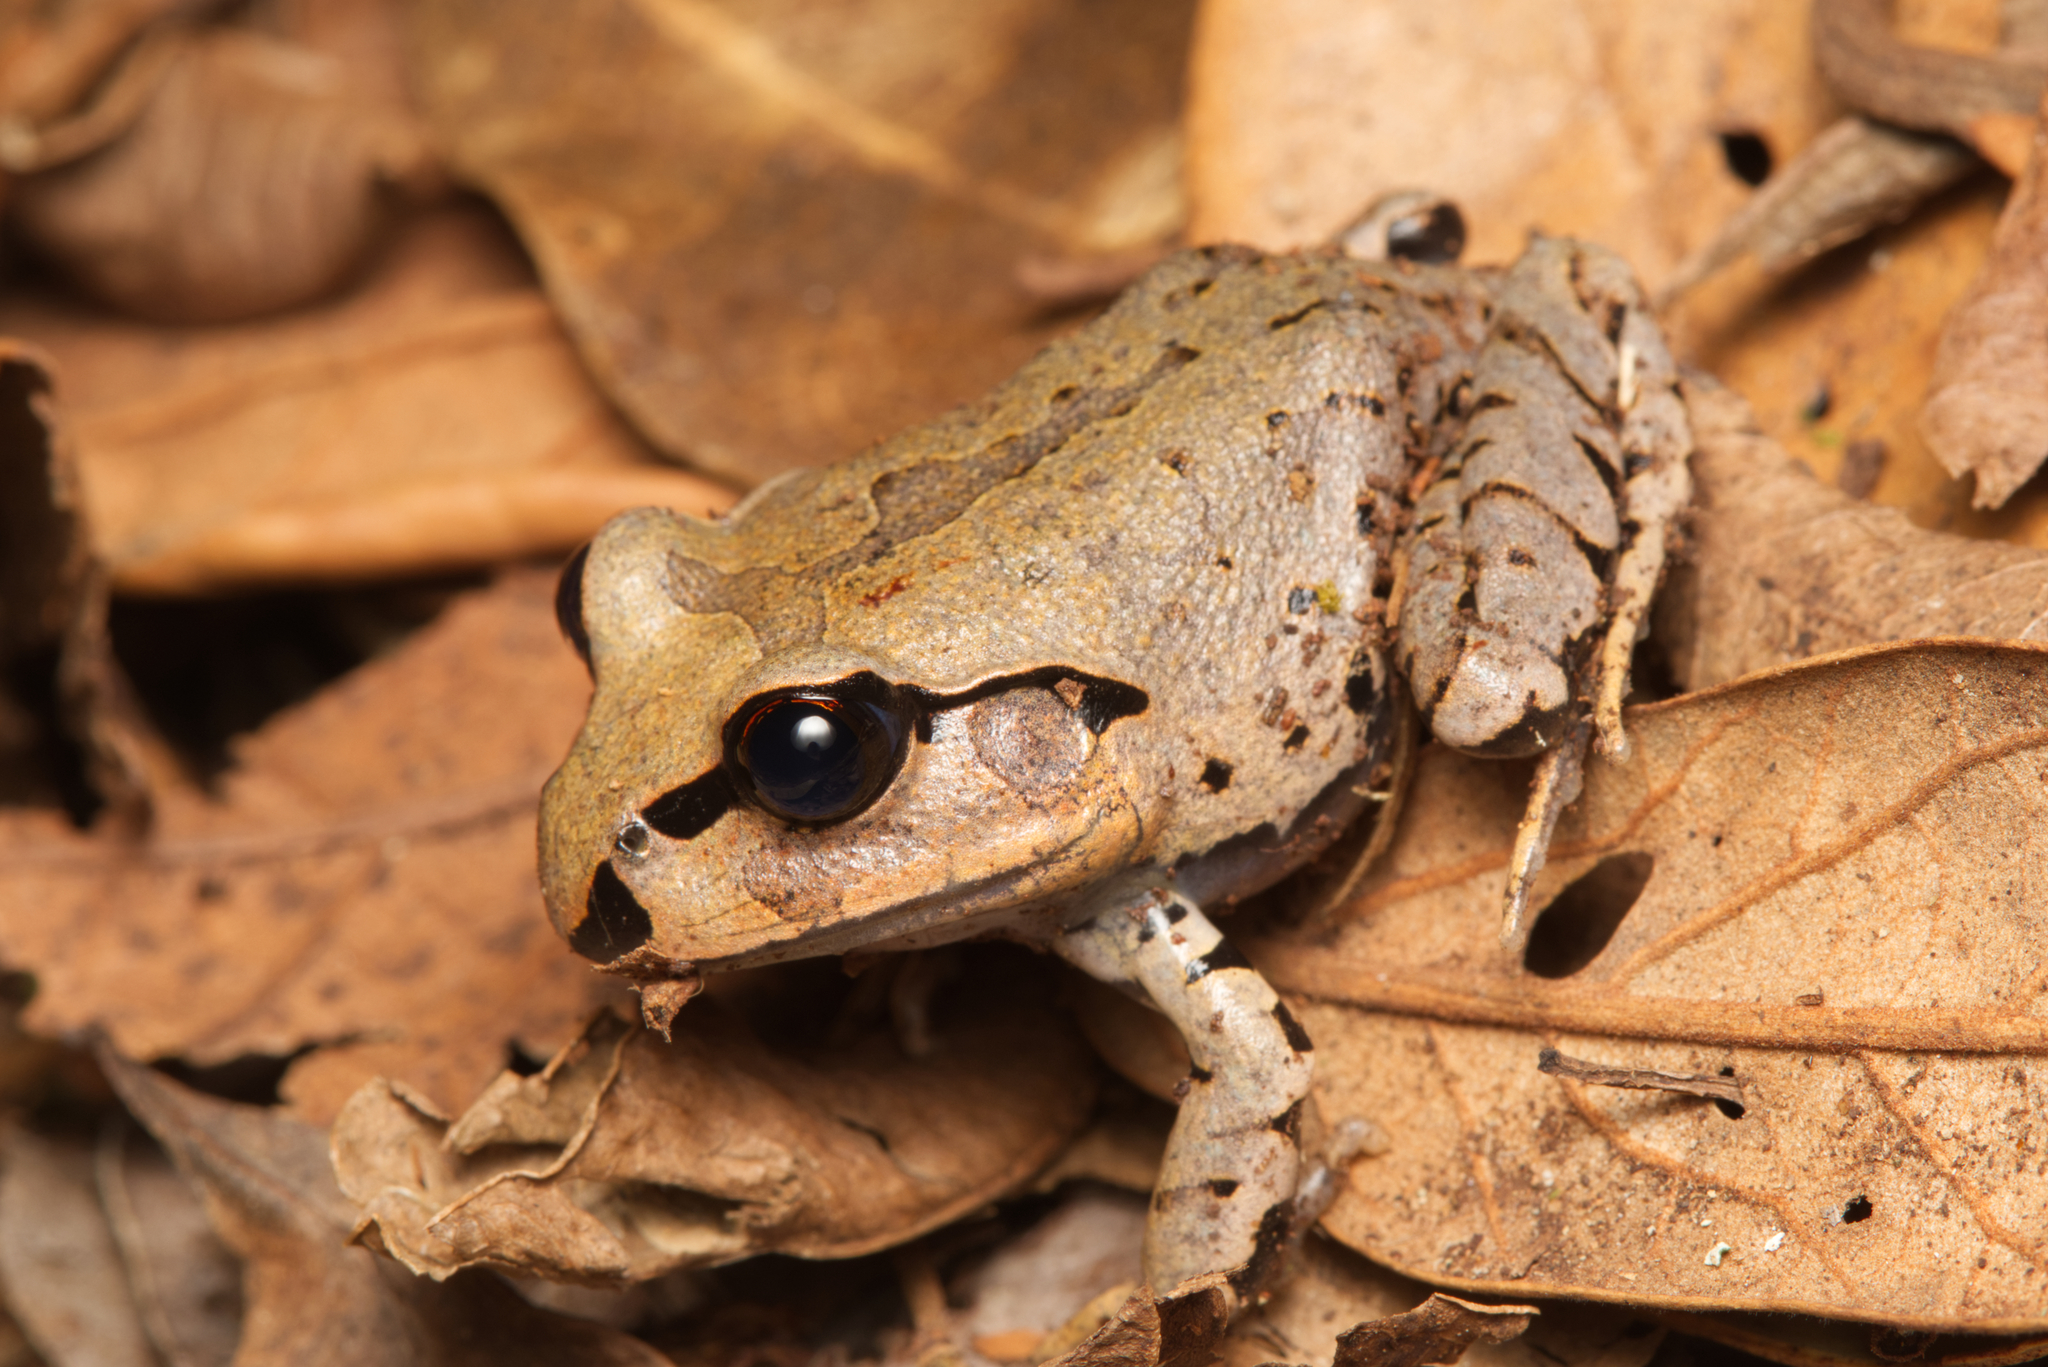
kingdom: Animalia
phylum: Chordata
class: Amphibia
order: Anura
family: Myobatrachidae
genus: Mixophyes
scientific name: Mixophyes fasciolatus
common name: Great barred river-frog
